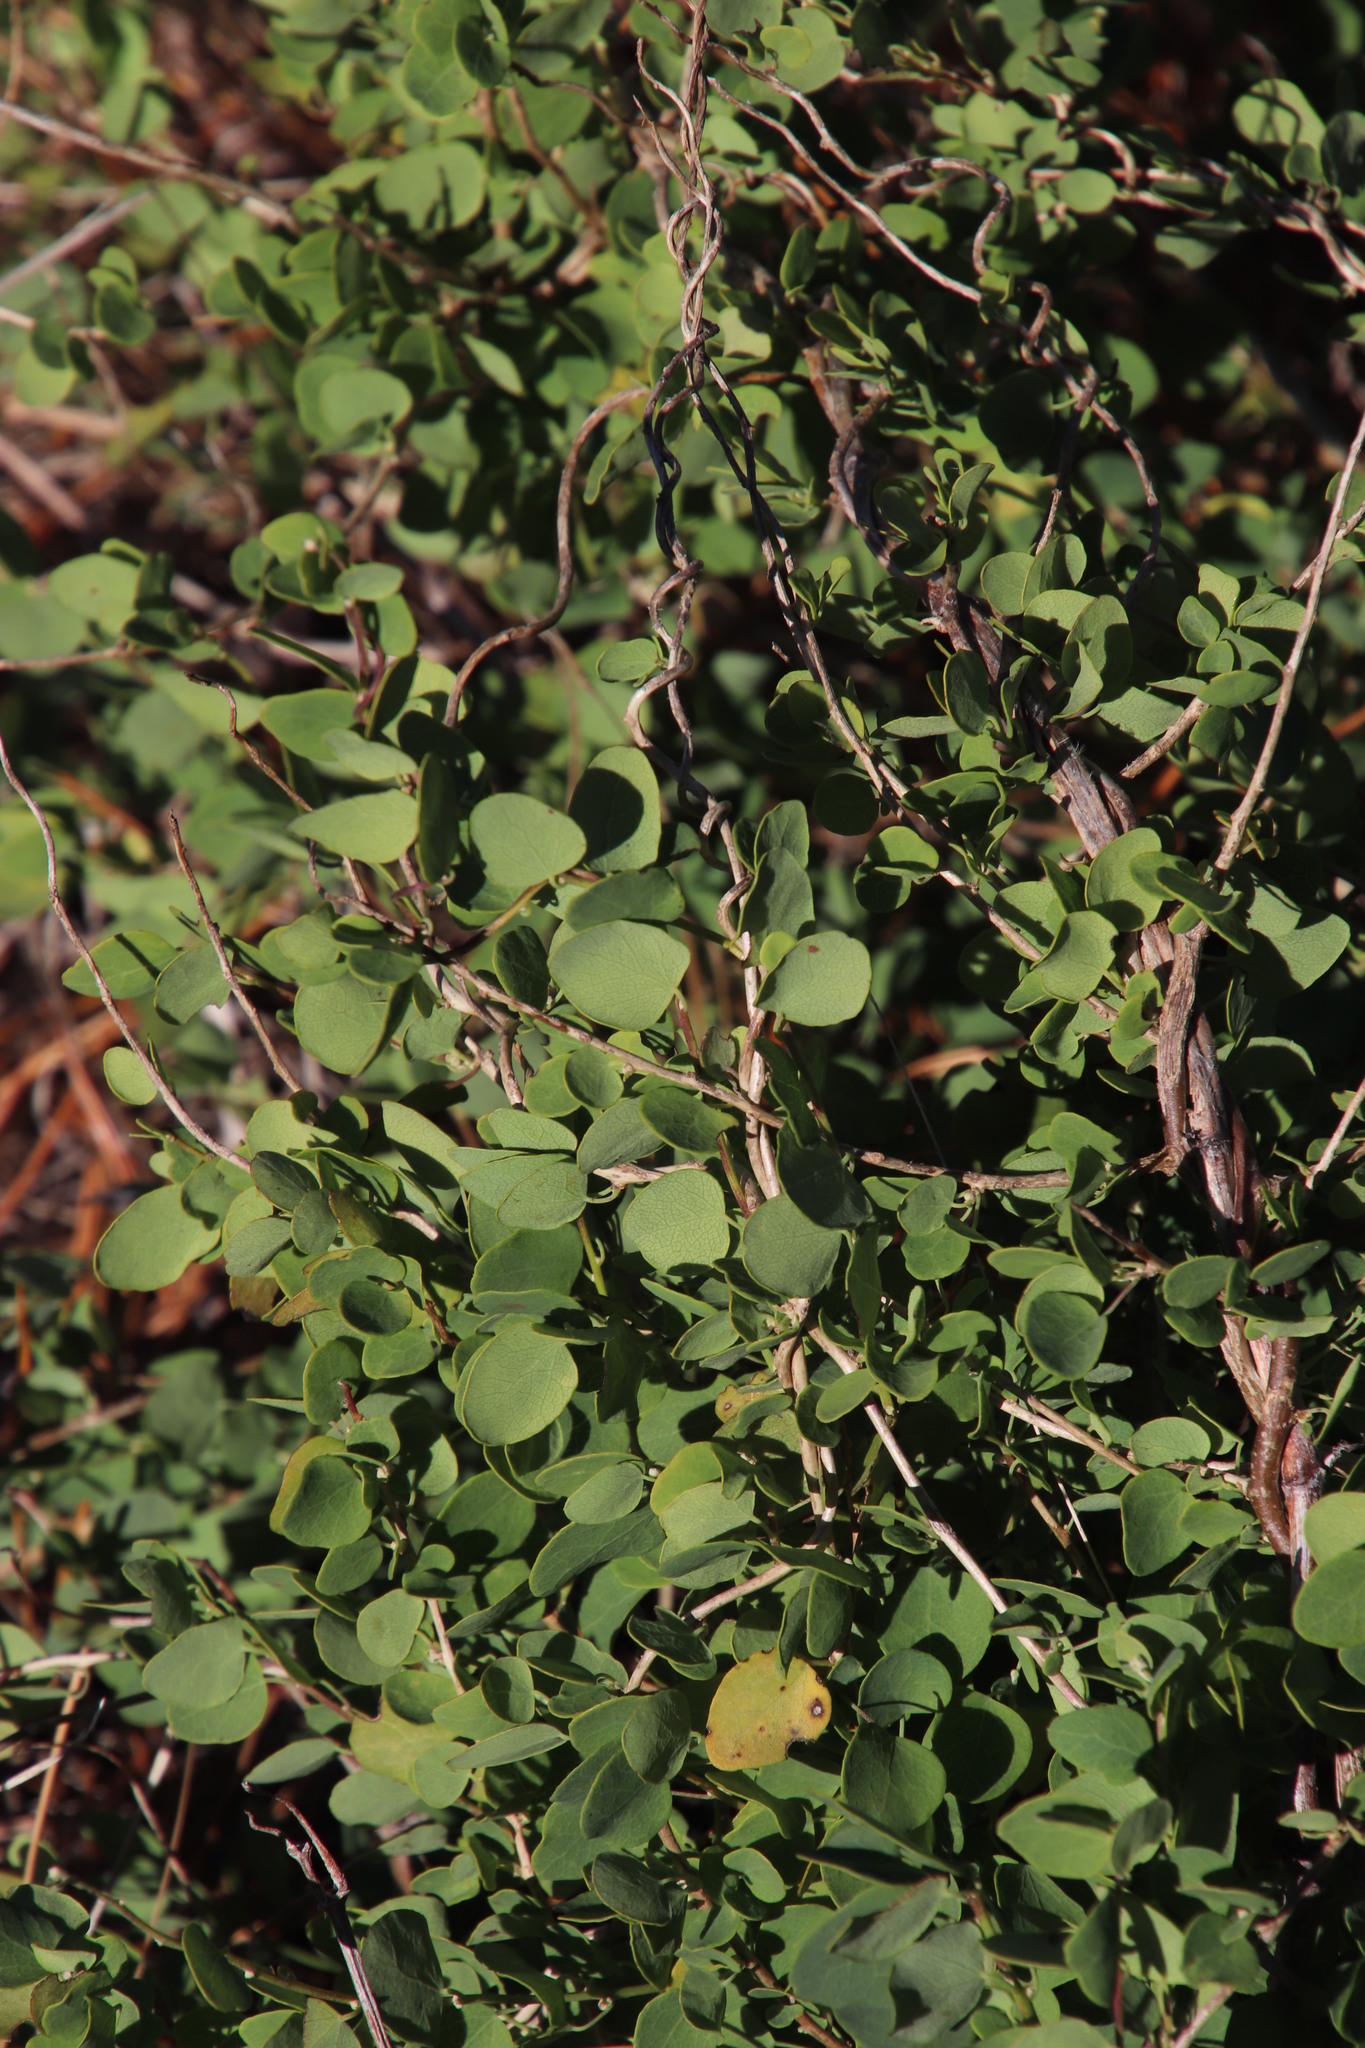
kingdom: Plantae
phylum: Tracheophyta
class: Magnoliopsida
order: Ranunculales
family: Menispermaceae
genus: Cissampelos
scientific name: Cissampelos capensis
